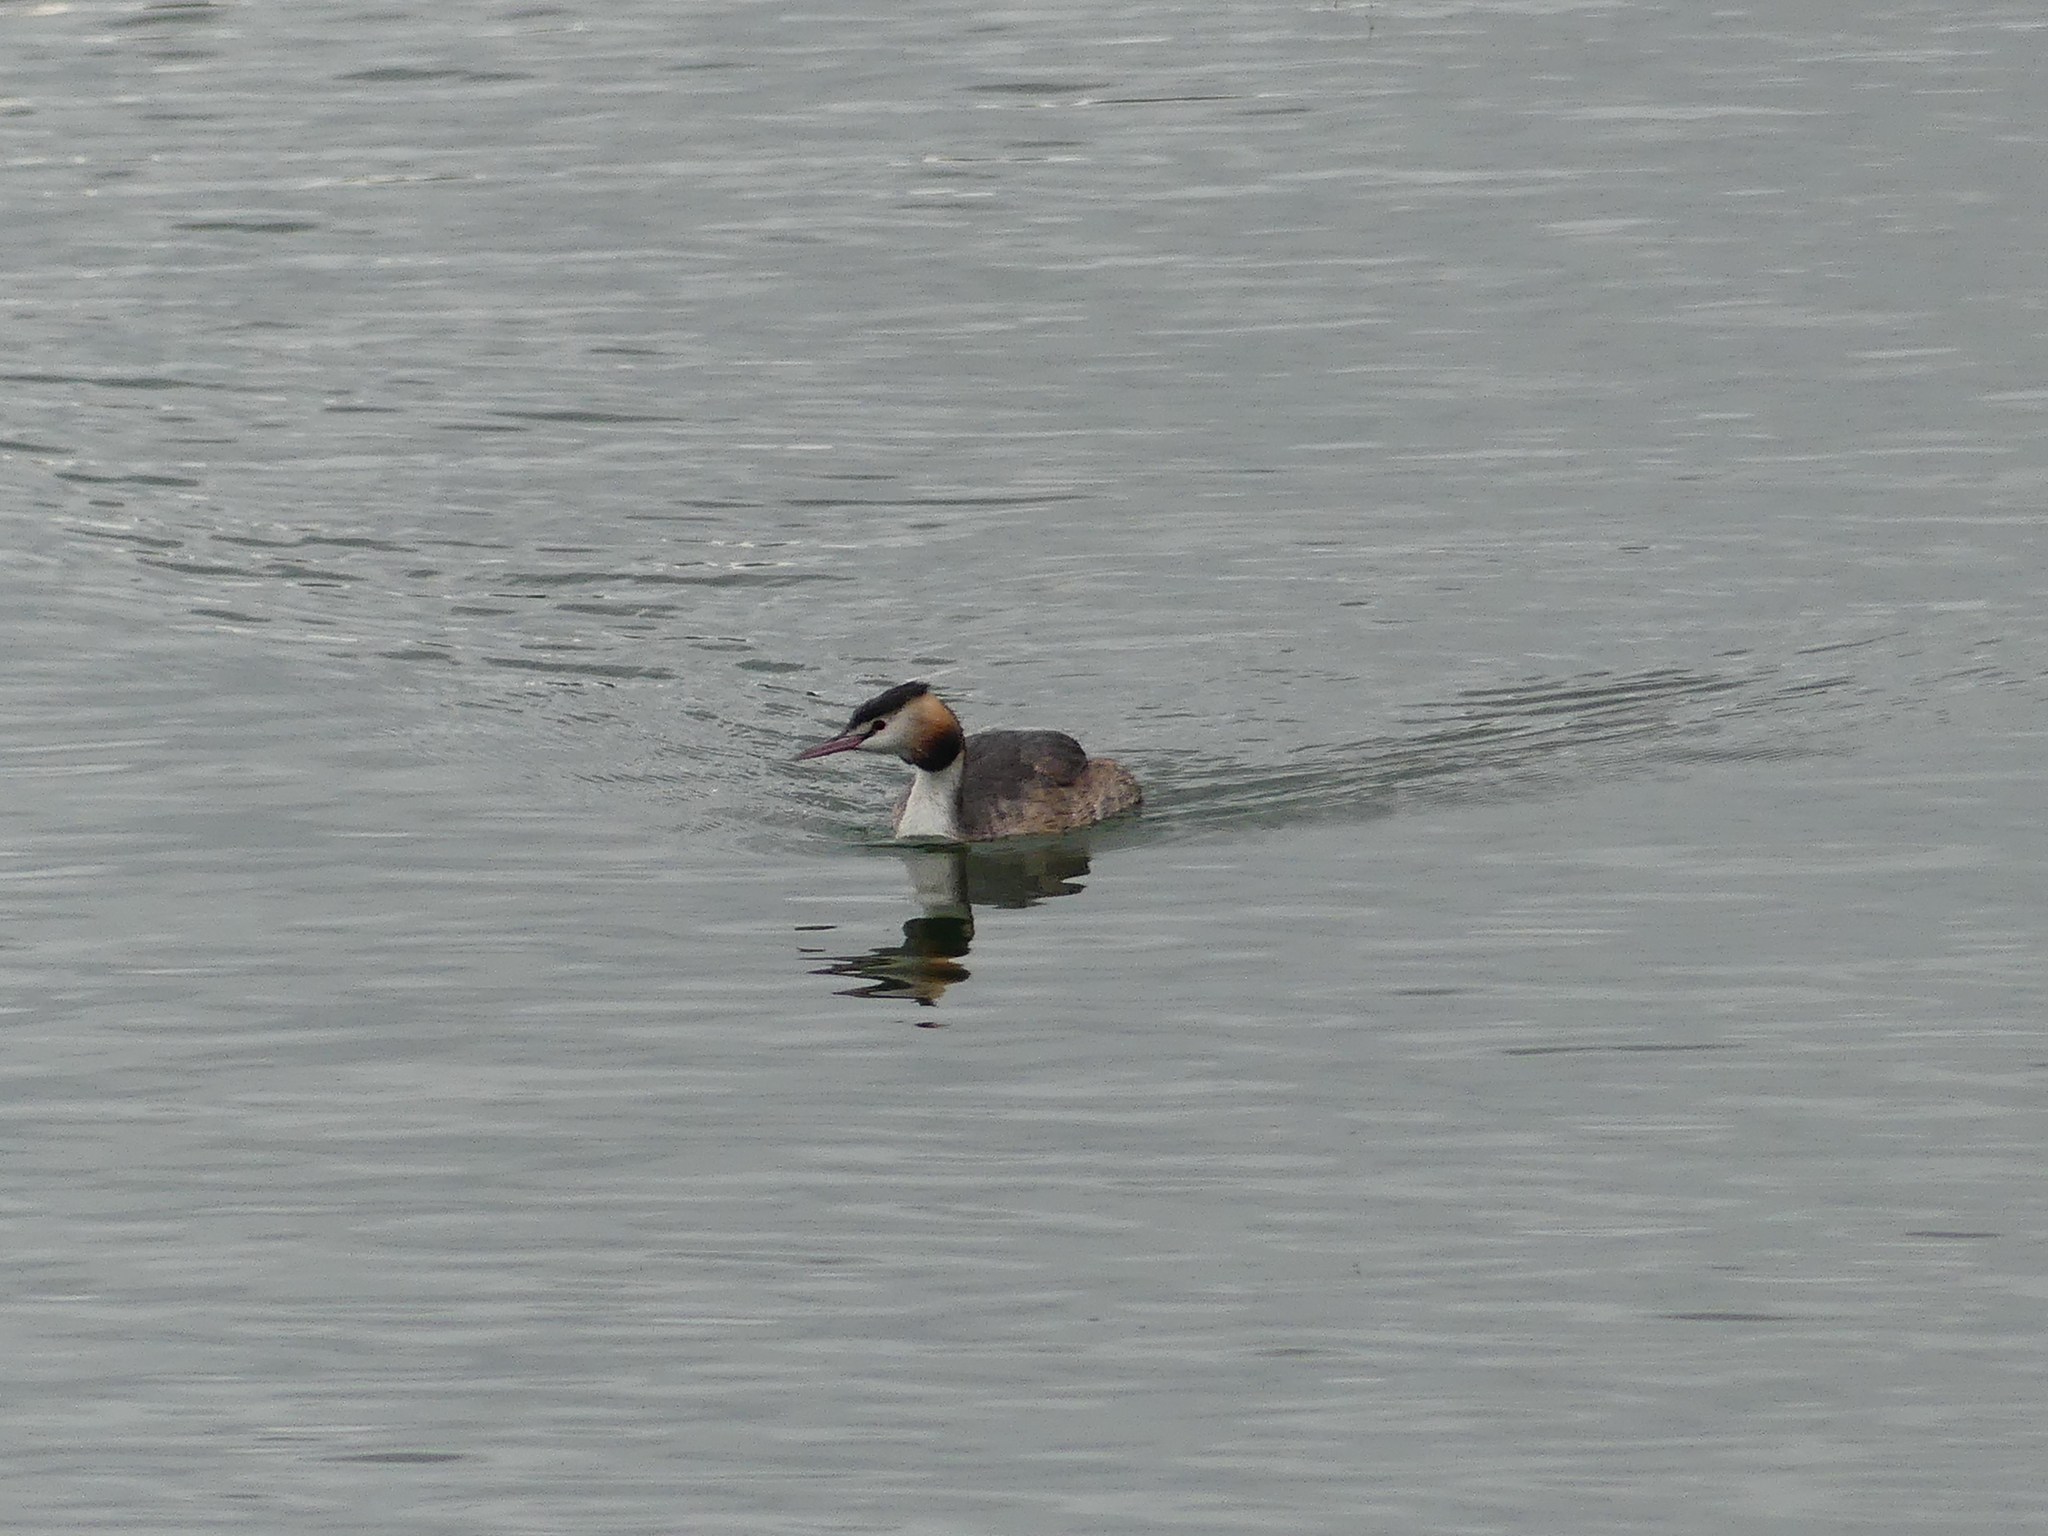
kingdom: Animalia
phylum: Chordata
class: Aves
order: Podicipediformes
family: Podicipedidae
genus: Podiceps
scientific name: Podiceps cristatus
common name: Great crested grebe
